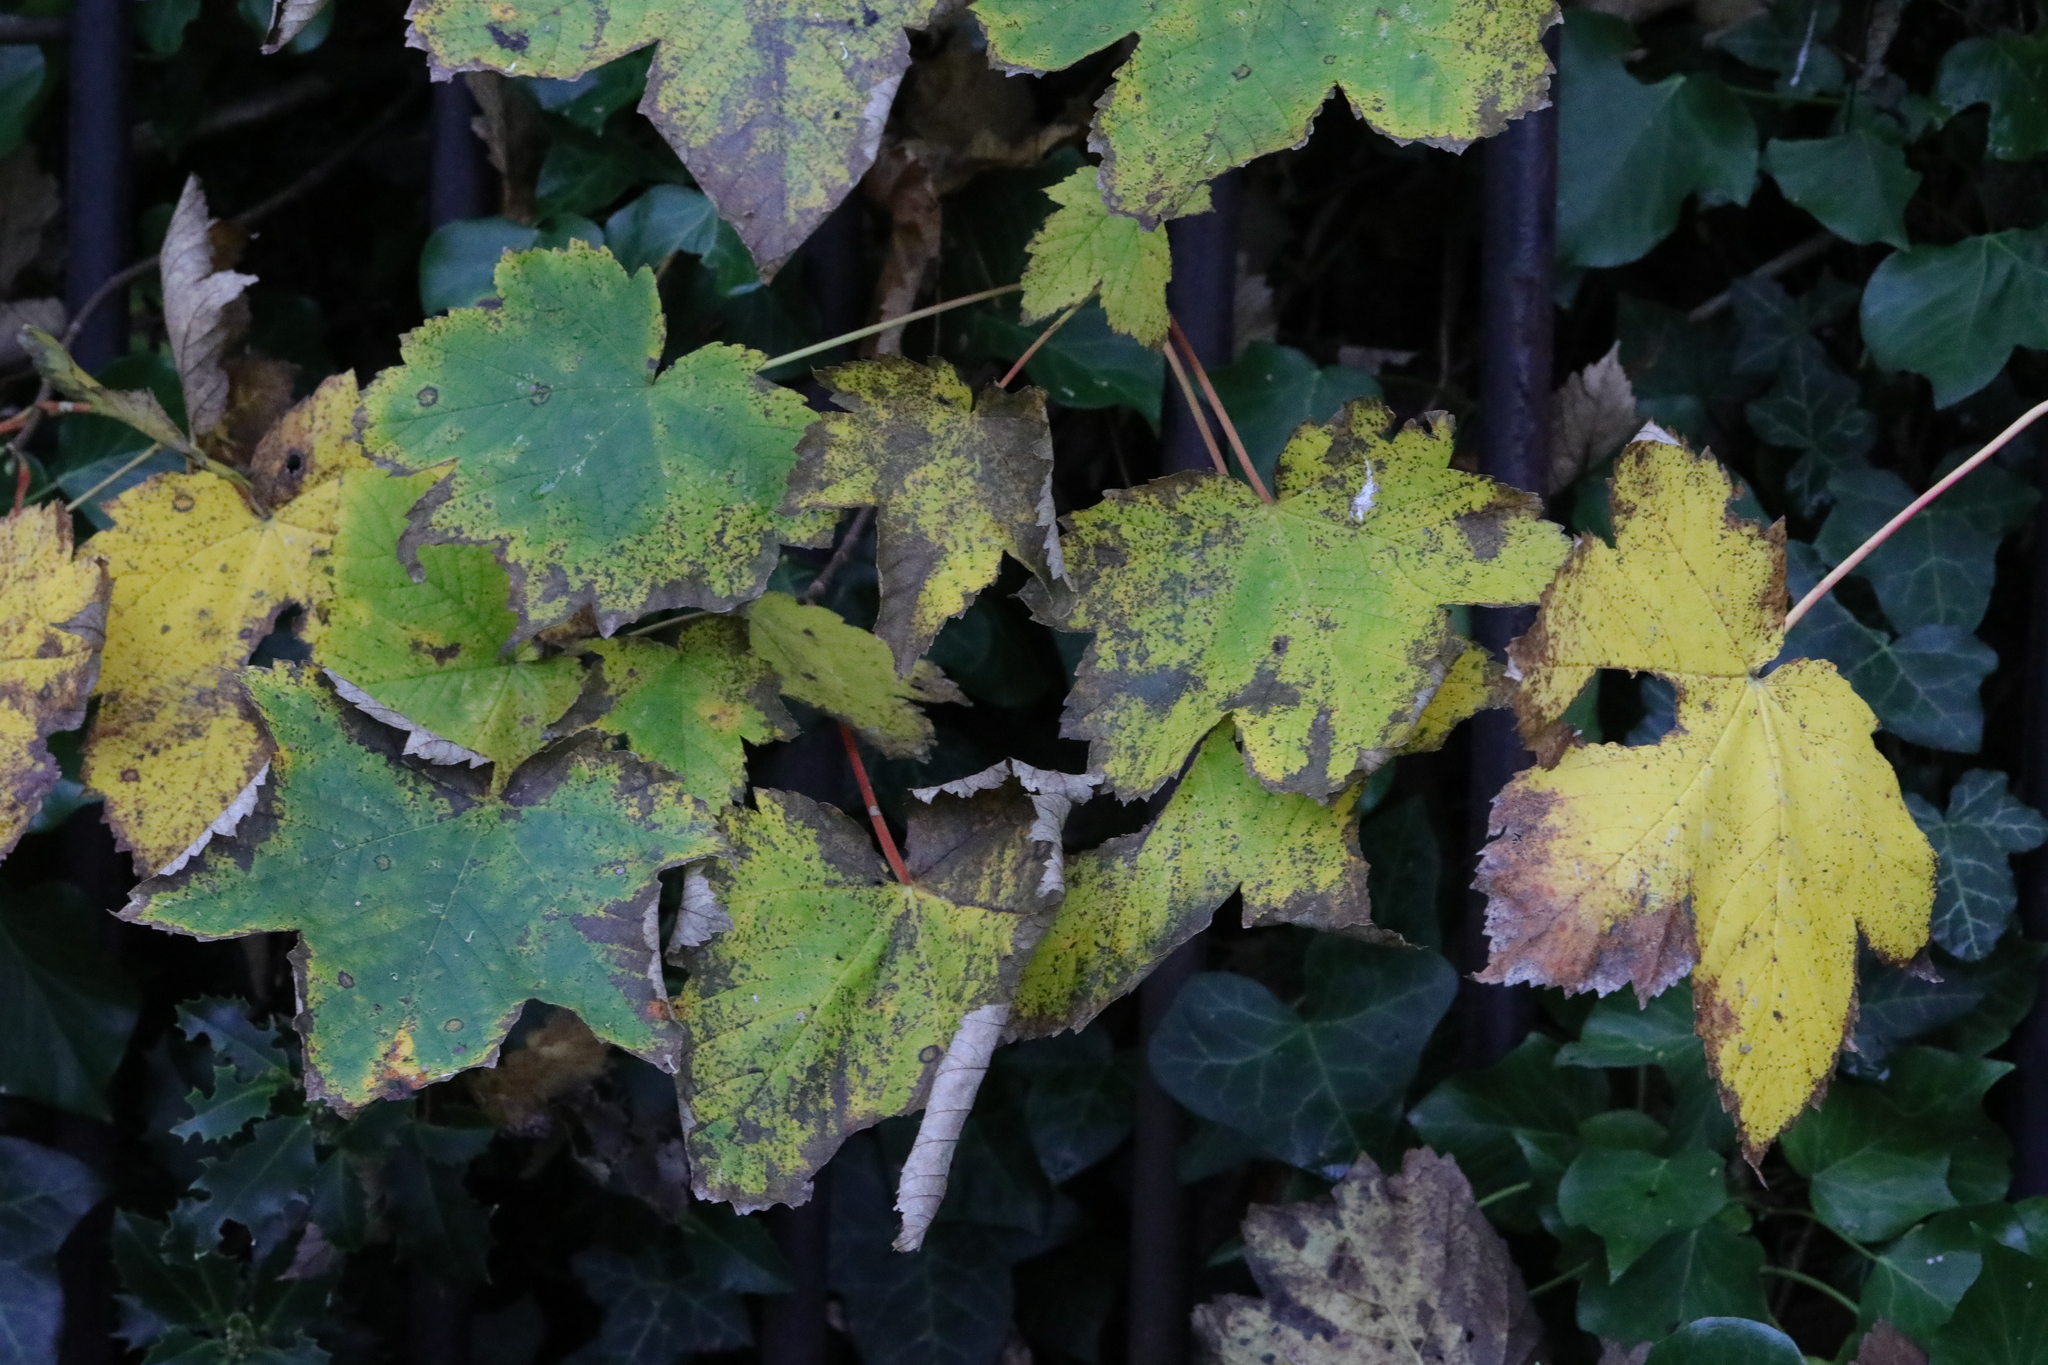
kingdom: Plantae
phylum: Tracheophyta
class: Magnoliopsida
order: Sapindales
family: Sapindaceae
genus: Acer
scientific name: Acer pseudoplatanus
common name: Sycamore
